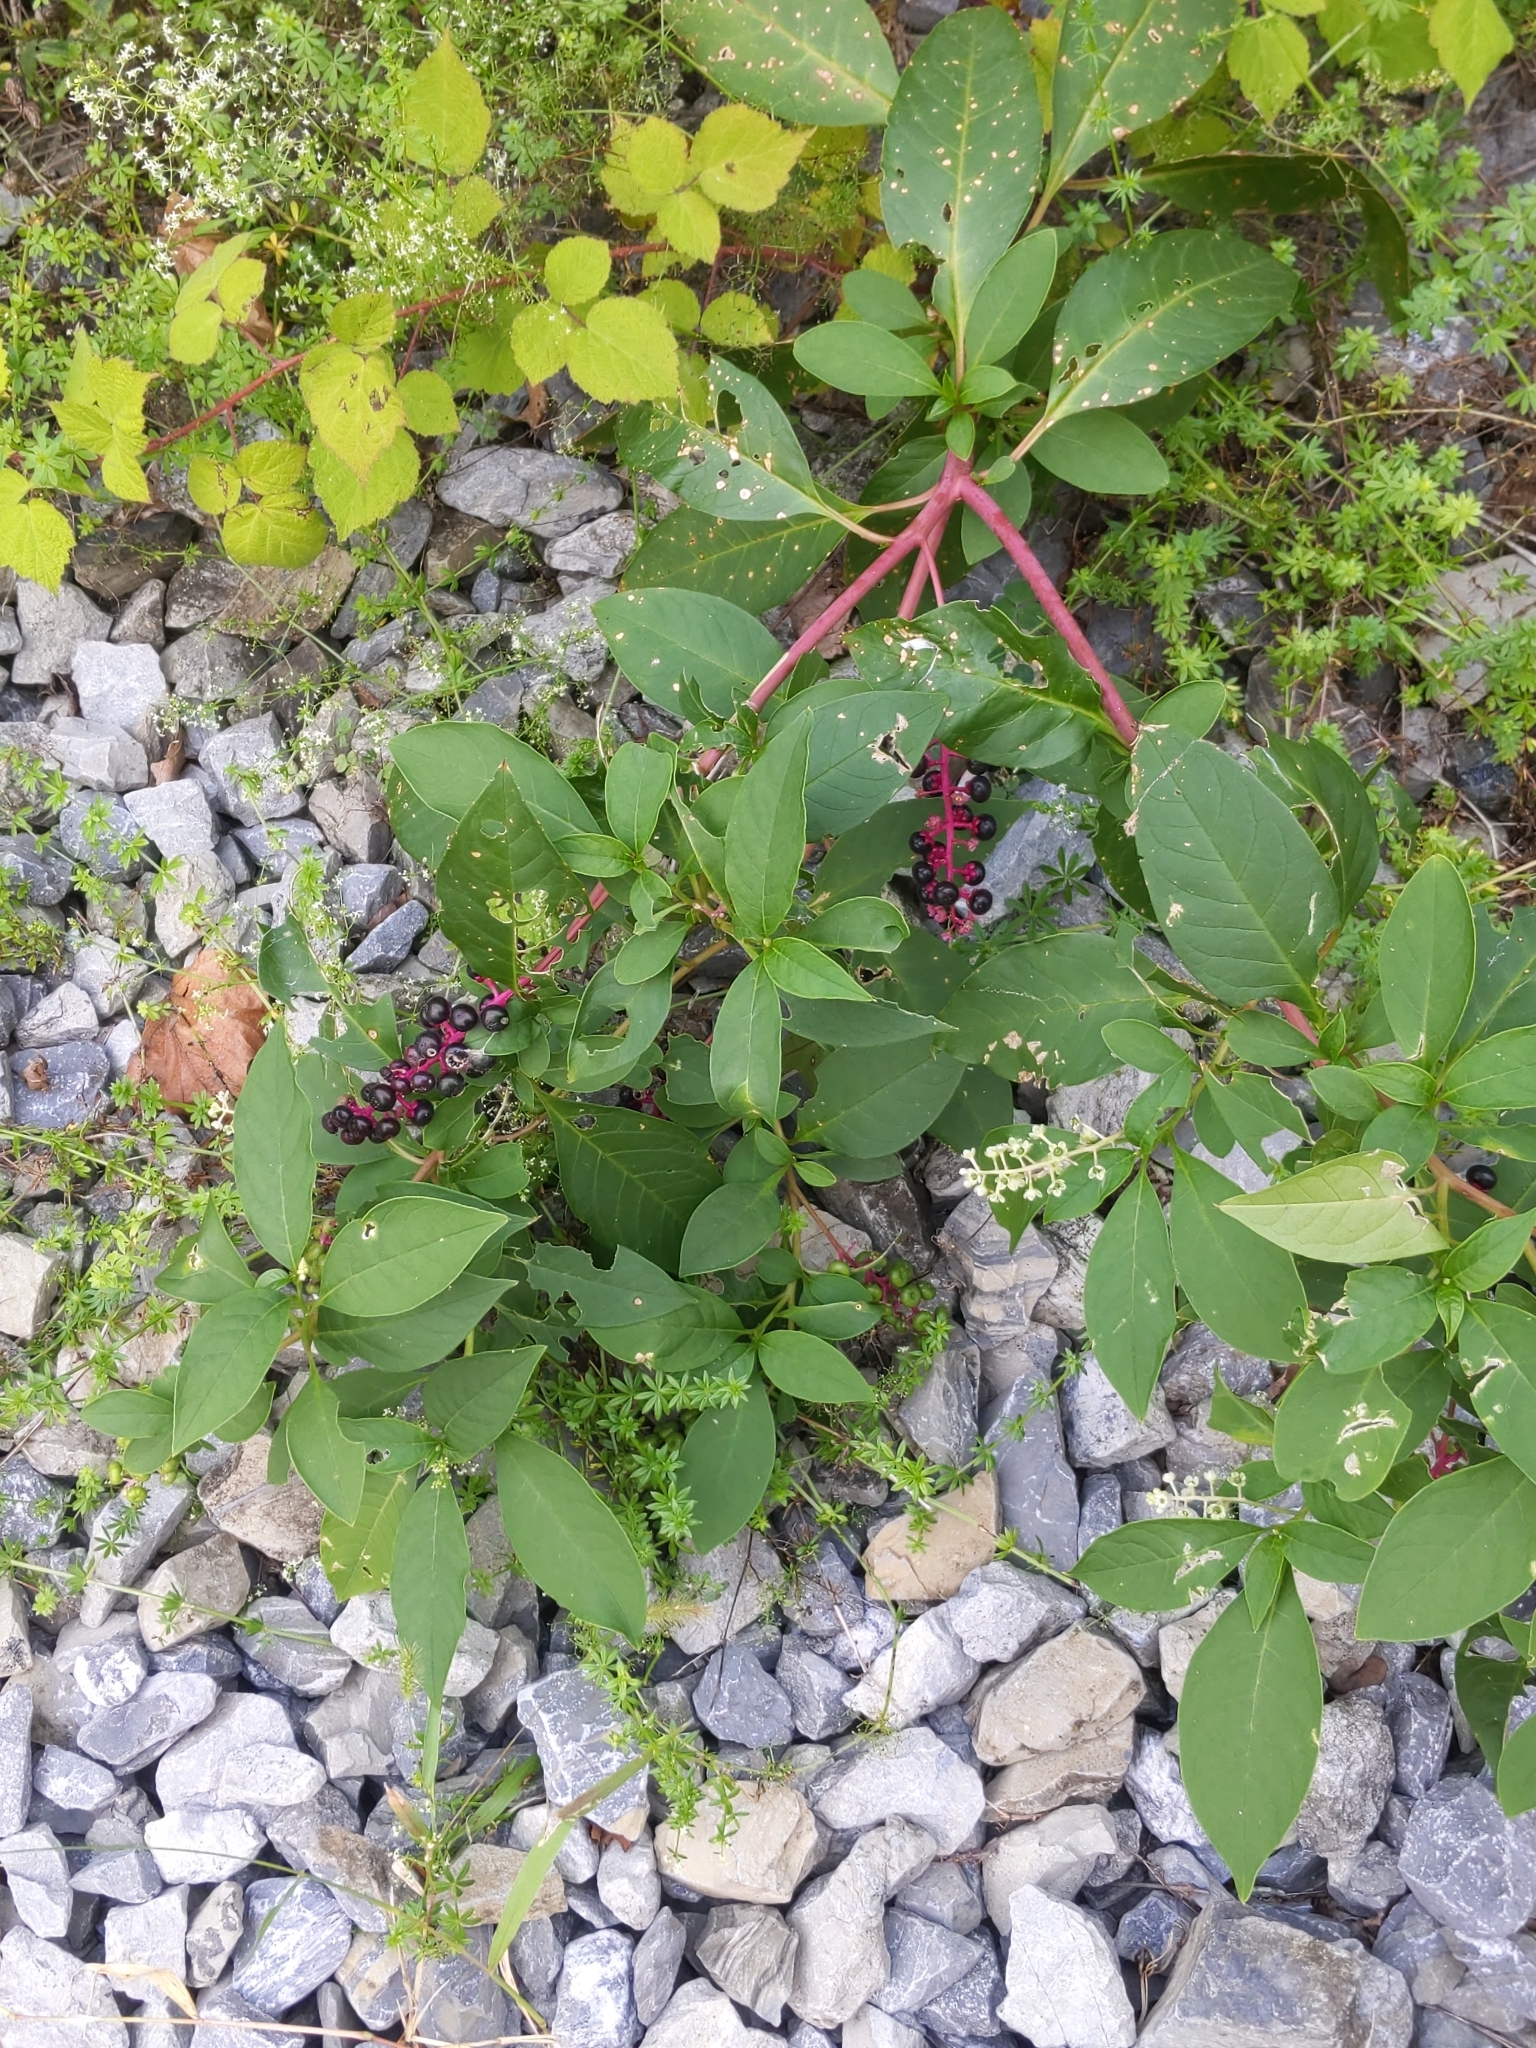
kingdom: Plantae
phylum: Tracheophyta
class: Magnoliopsida
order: Caryophyllales
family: Phytolaccaceae
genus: Phytolacca
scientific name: Phytolacca americana
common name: American pokeweed
